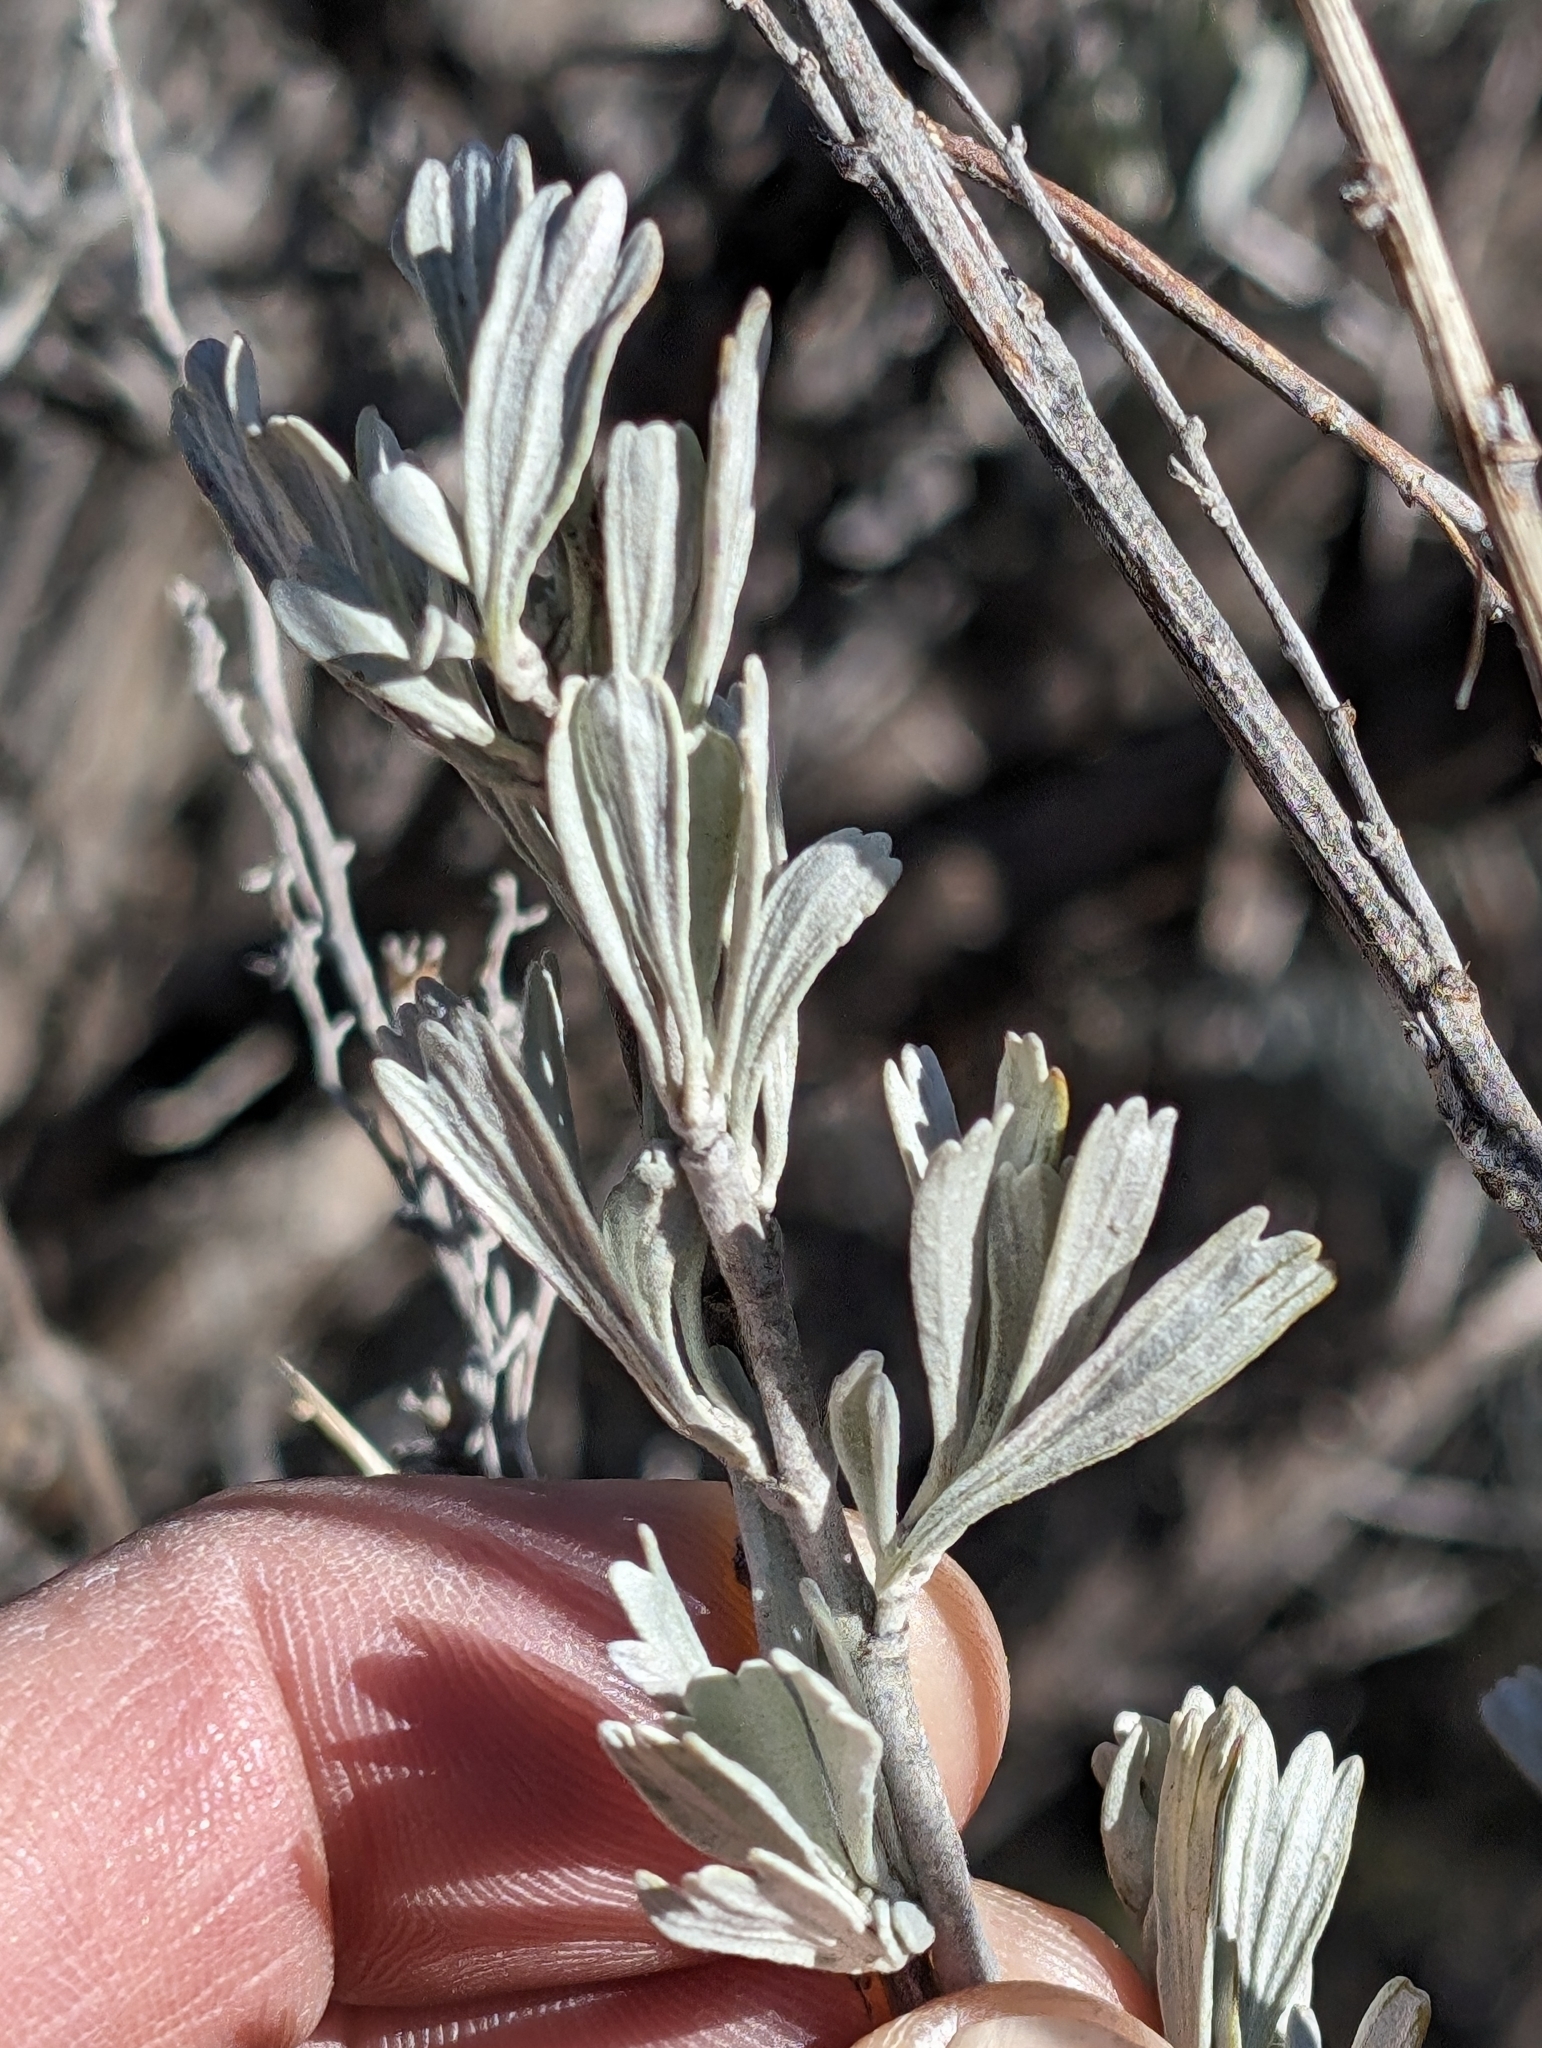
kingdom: Plantae
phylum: Tracheophyta
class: Magnoliopsida
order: Asterales
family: Asteraceae
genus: Artemisia
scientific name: Artemisia tridentata
